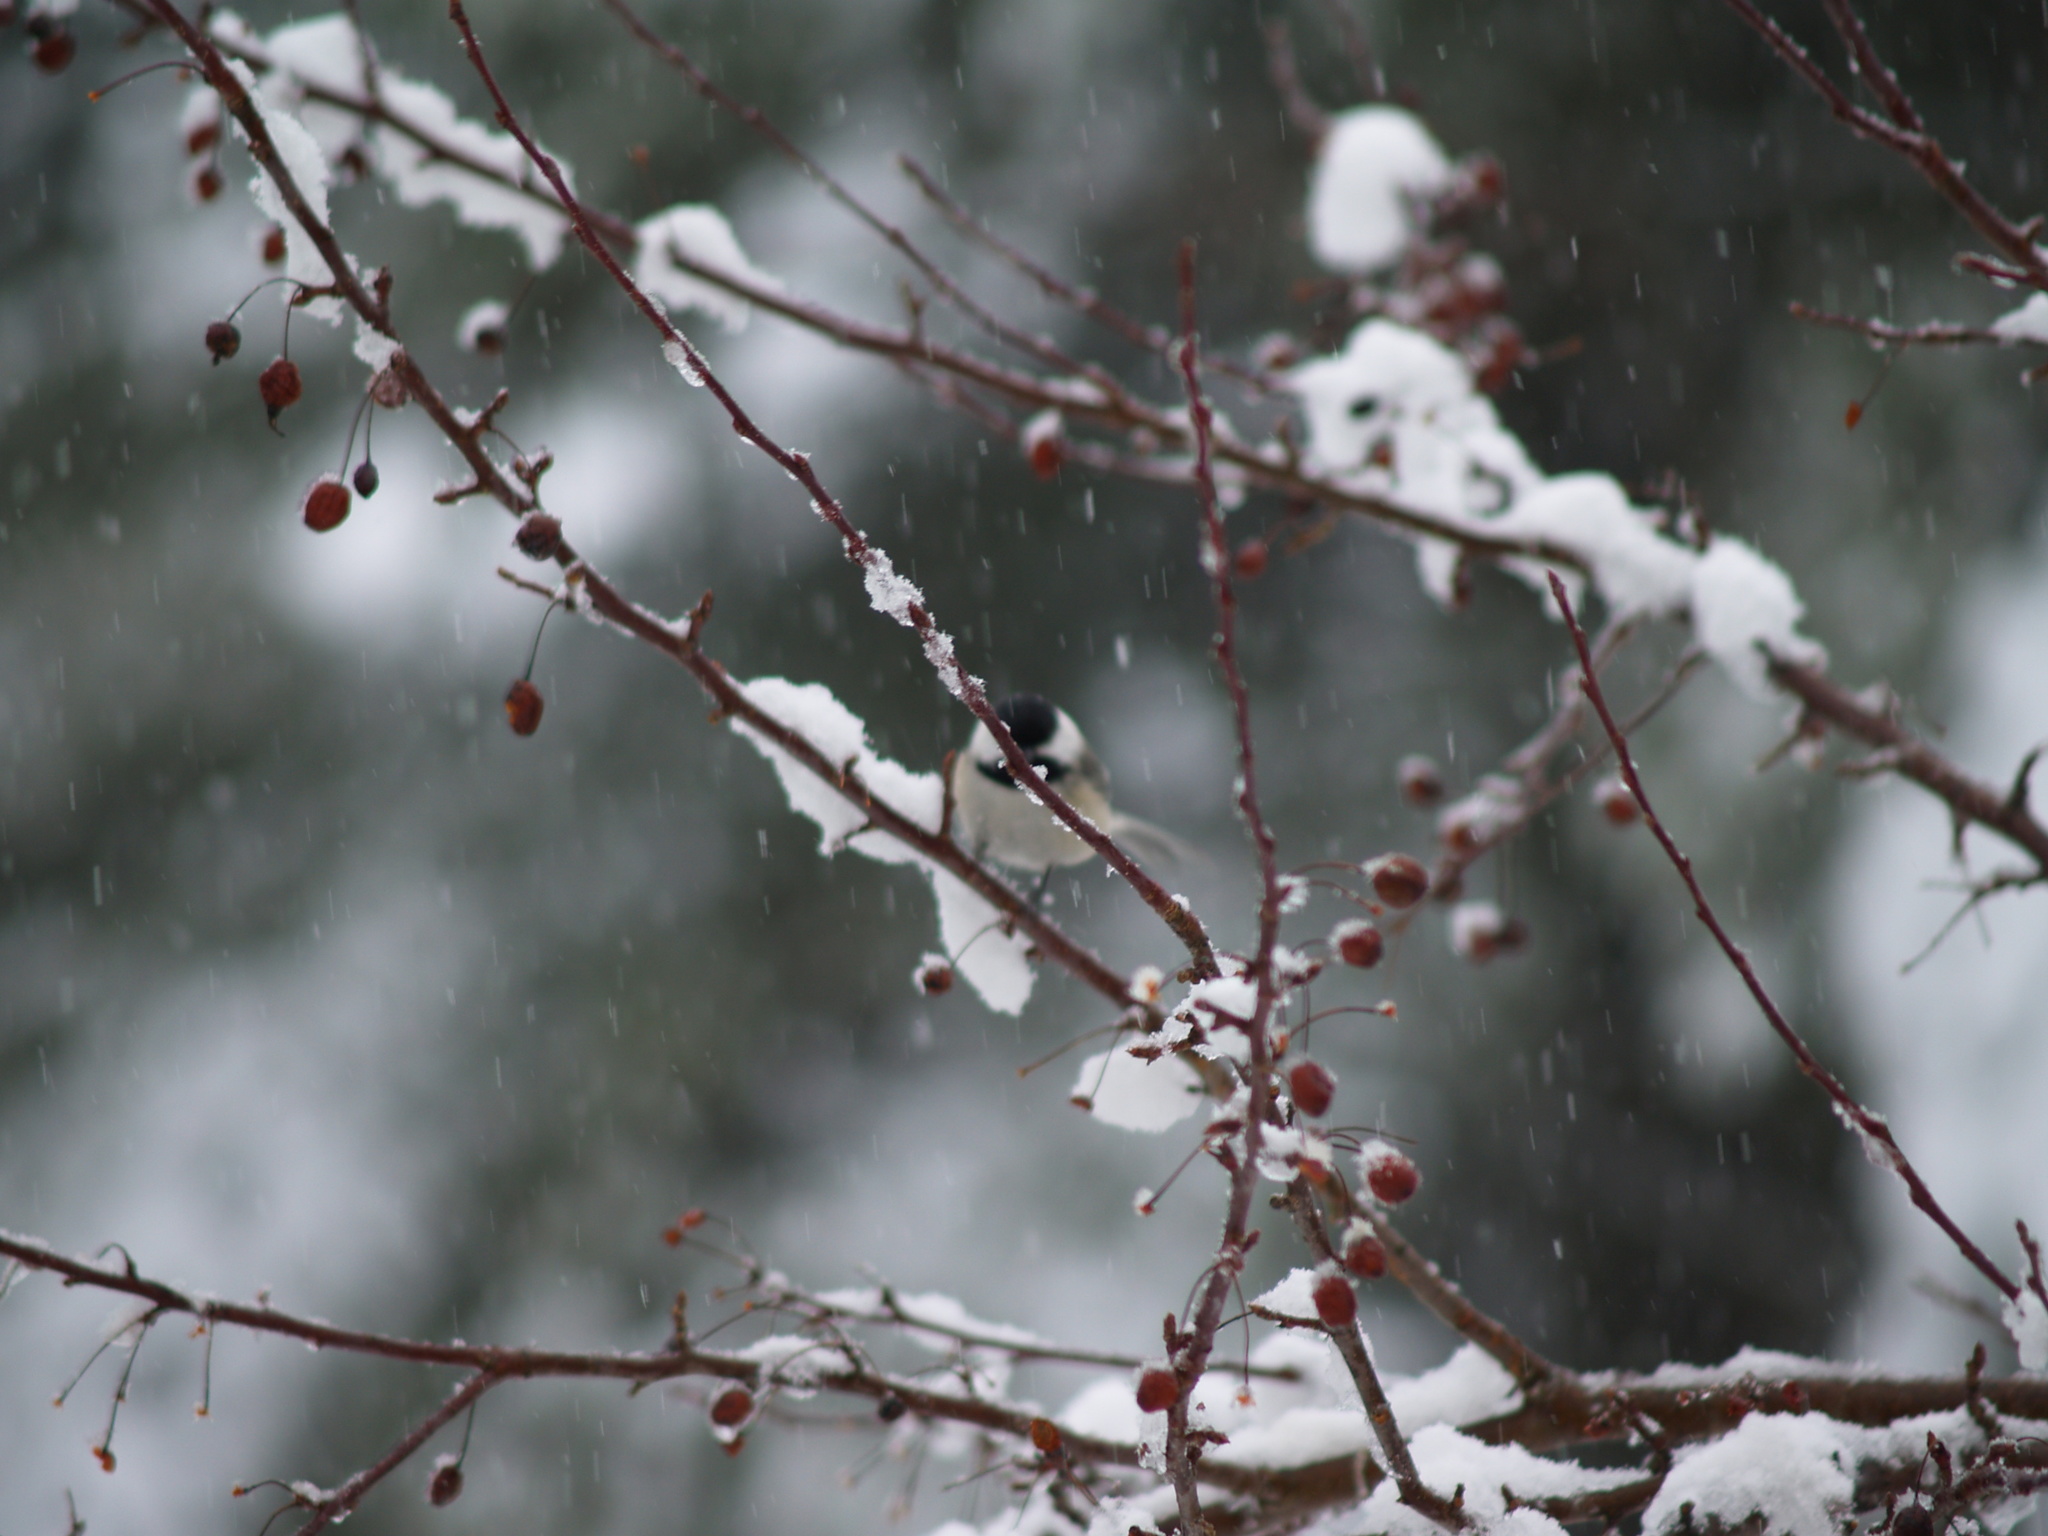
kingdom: Animalia
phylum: Chordata
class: Aves
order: Passeriformes
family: Paridae
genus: Poecile
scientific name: Poecile atricapillus
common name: Black-capped chickadee
